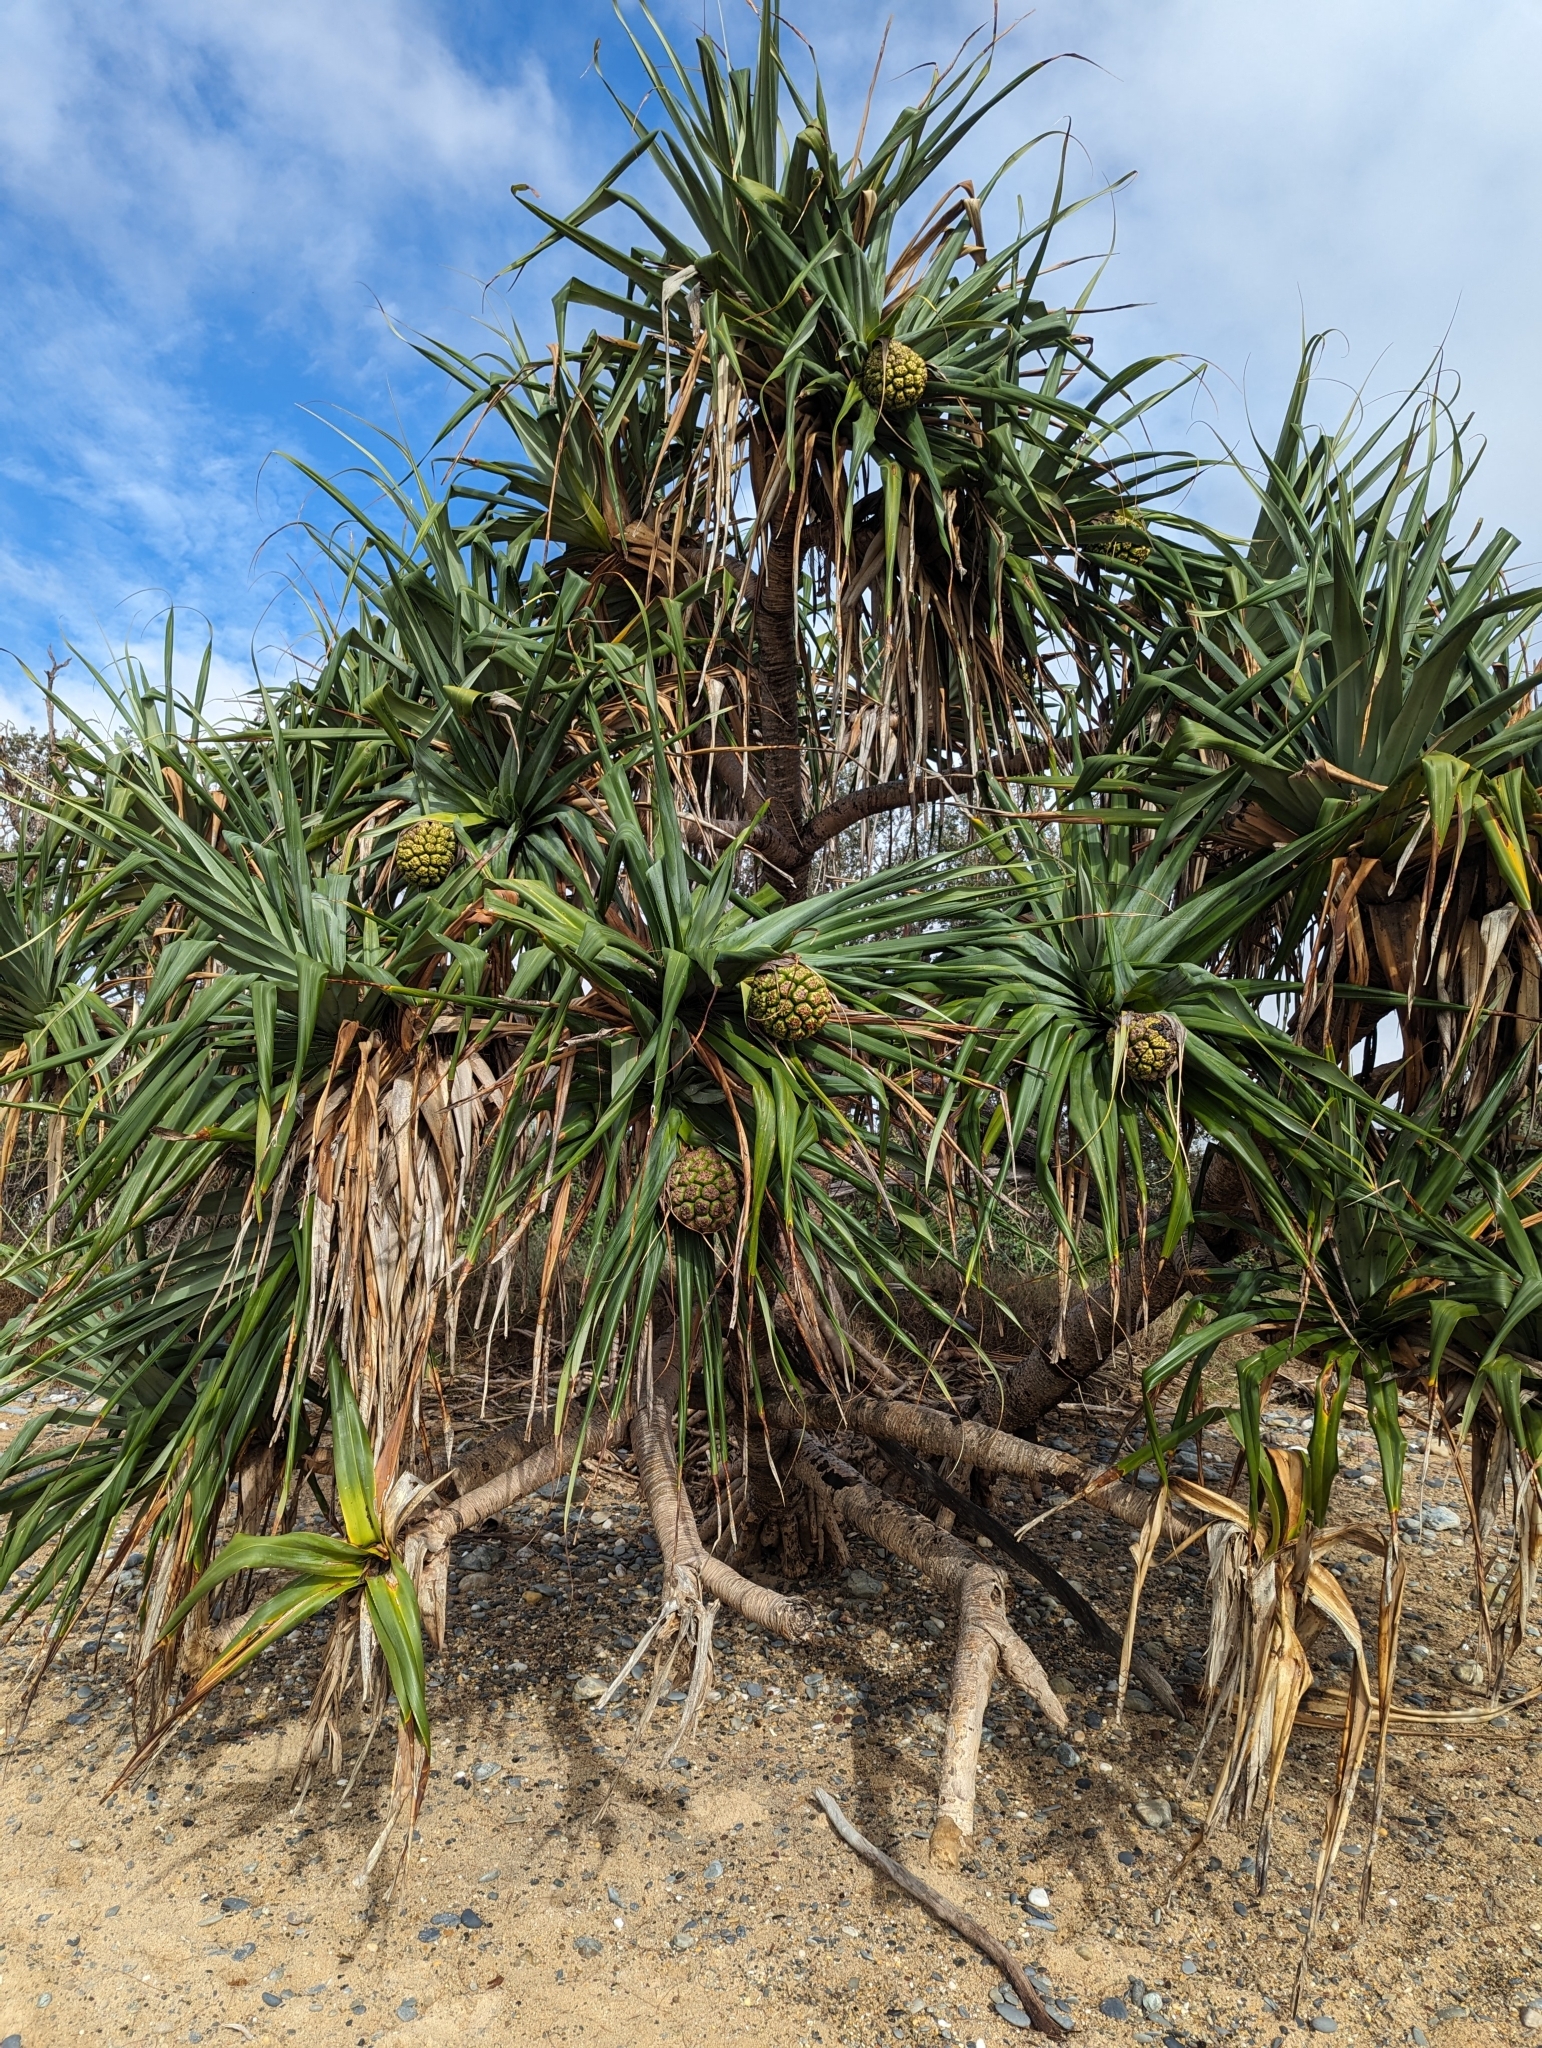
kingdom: Plantae
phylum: Tracheophyta
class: Liliopsida
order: Pandanales
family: Pandanaceae
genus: Pandanus
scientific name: Pandanus tectorius
